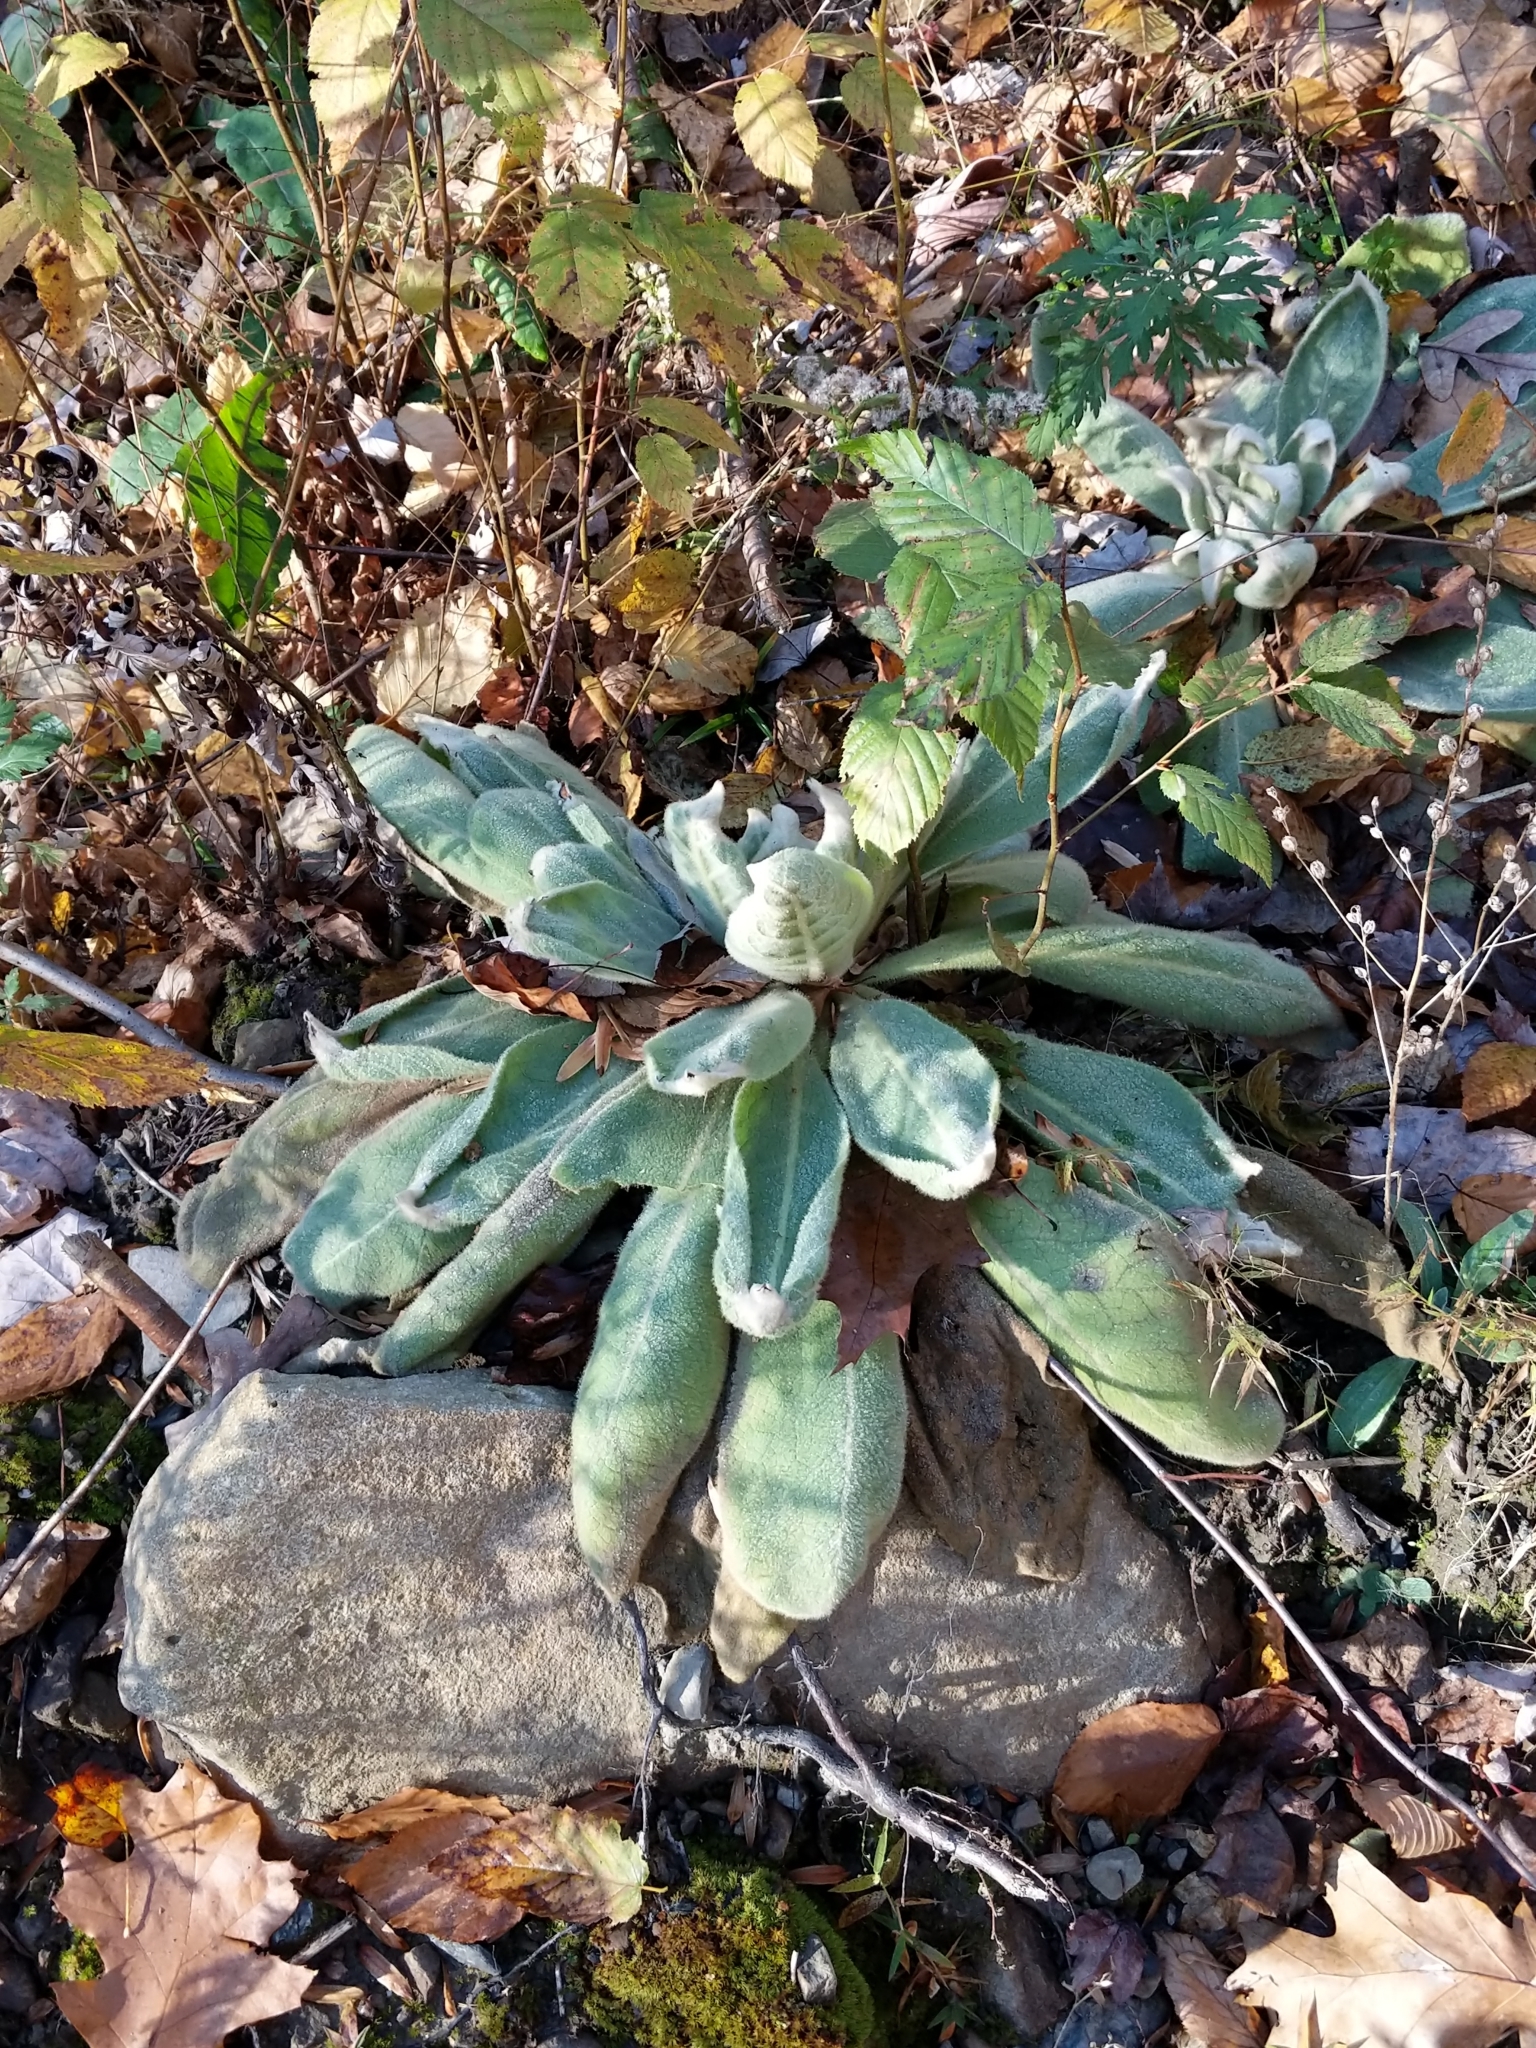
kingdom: Plantae
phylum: Tracheophyta
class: Magnoliopsida
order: Lamiales
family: Scrophulariaceae
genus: Verbascum
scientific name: Verbascum thapsus
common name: Common mullein
